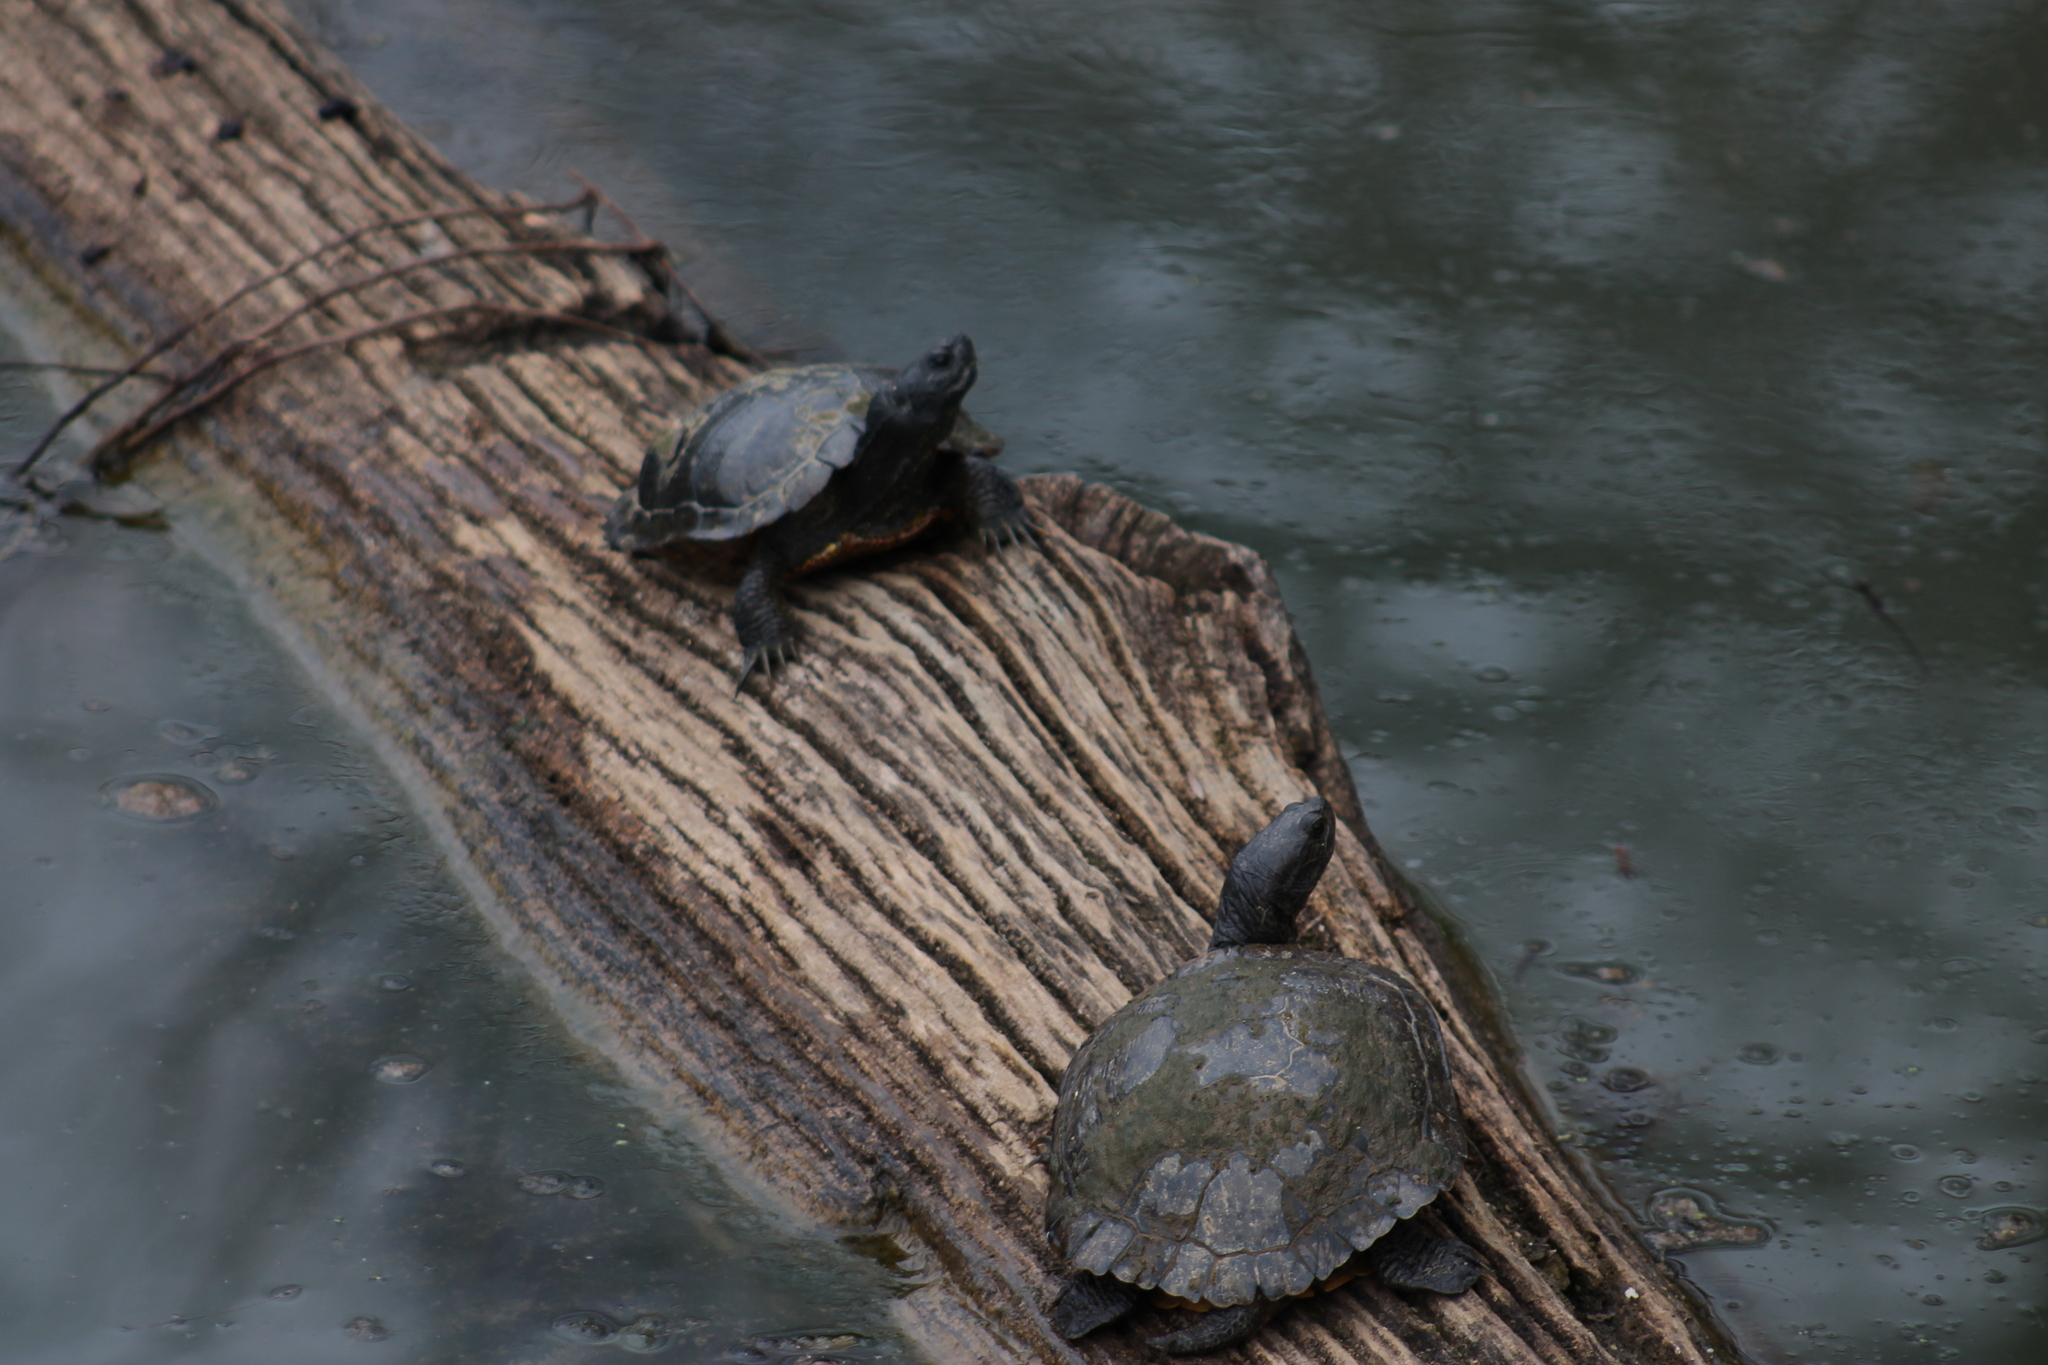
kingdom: Animalia
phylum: Chordata
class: Testudines
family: Emydidae
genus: Trachemys
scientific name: Trachemys scripta
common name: Slider
